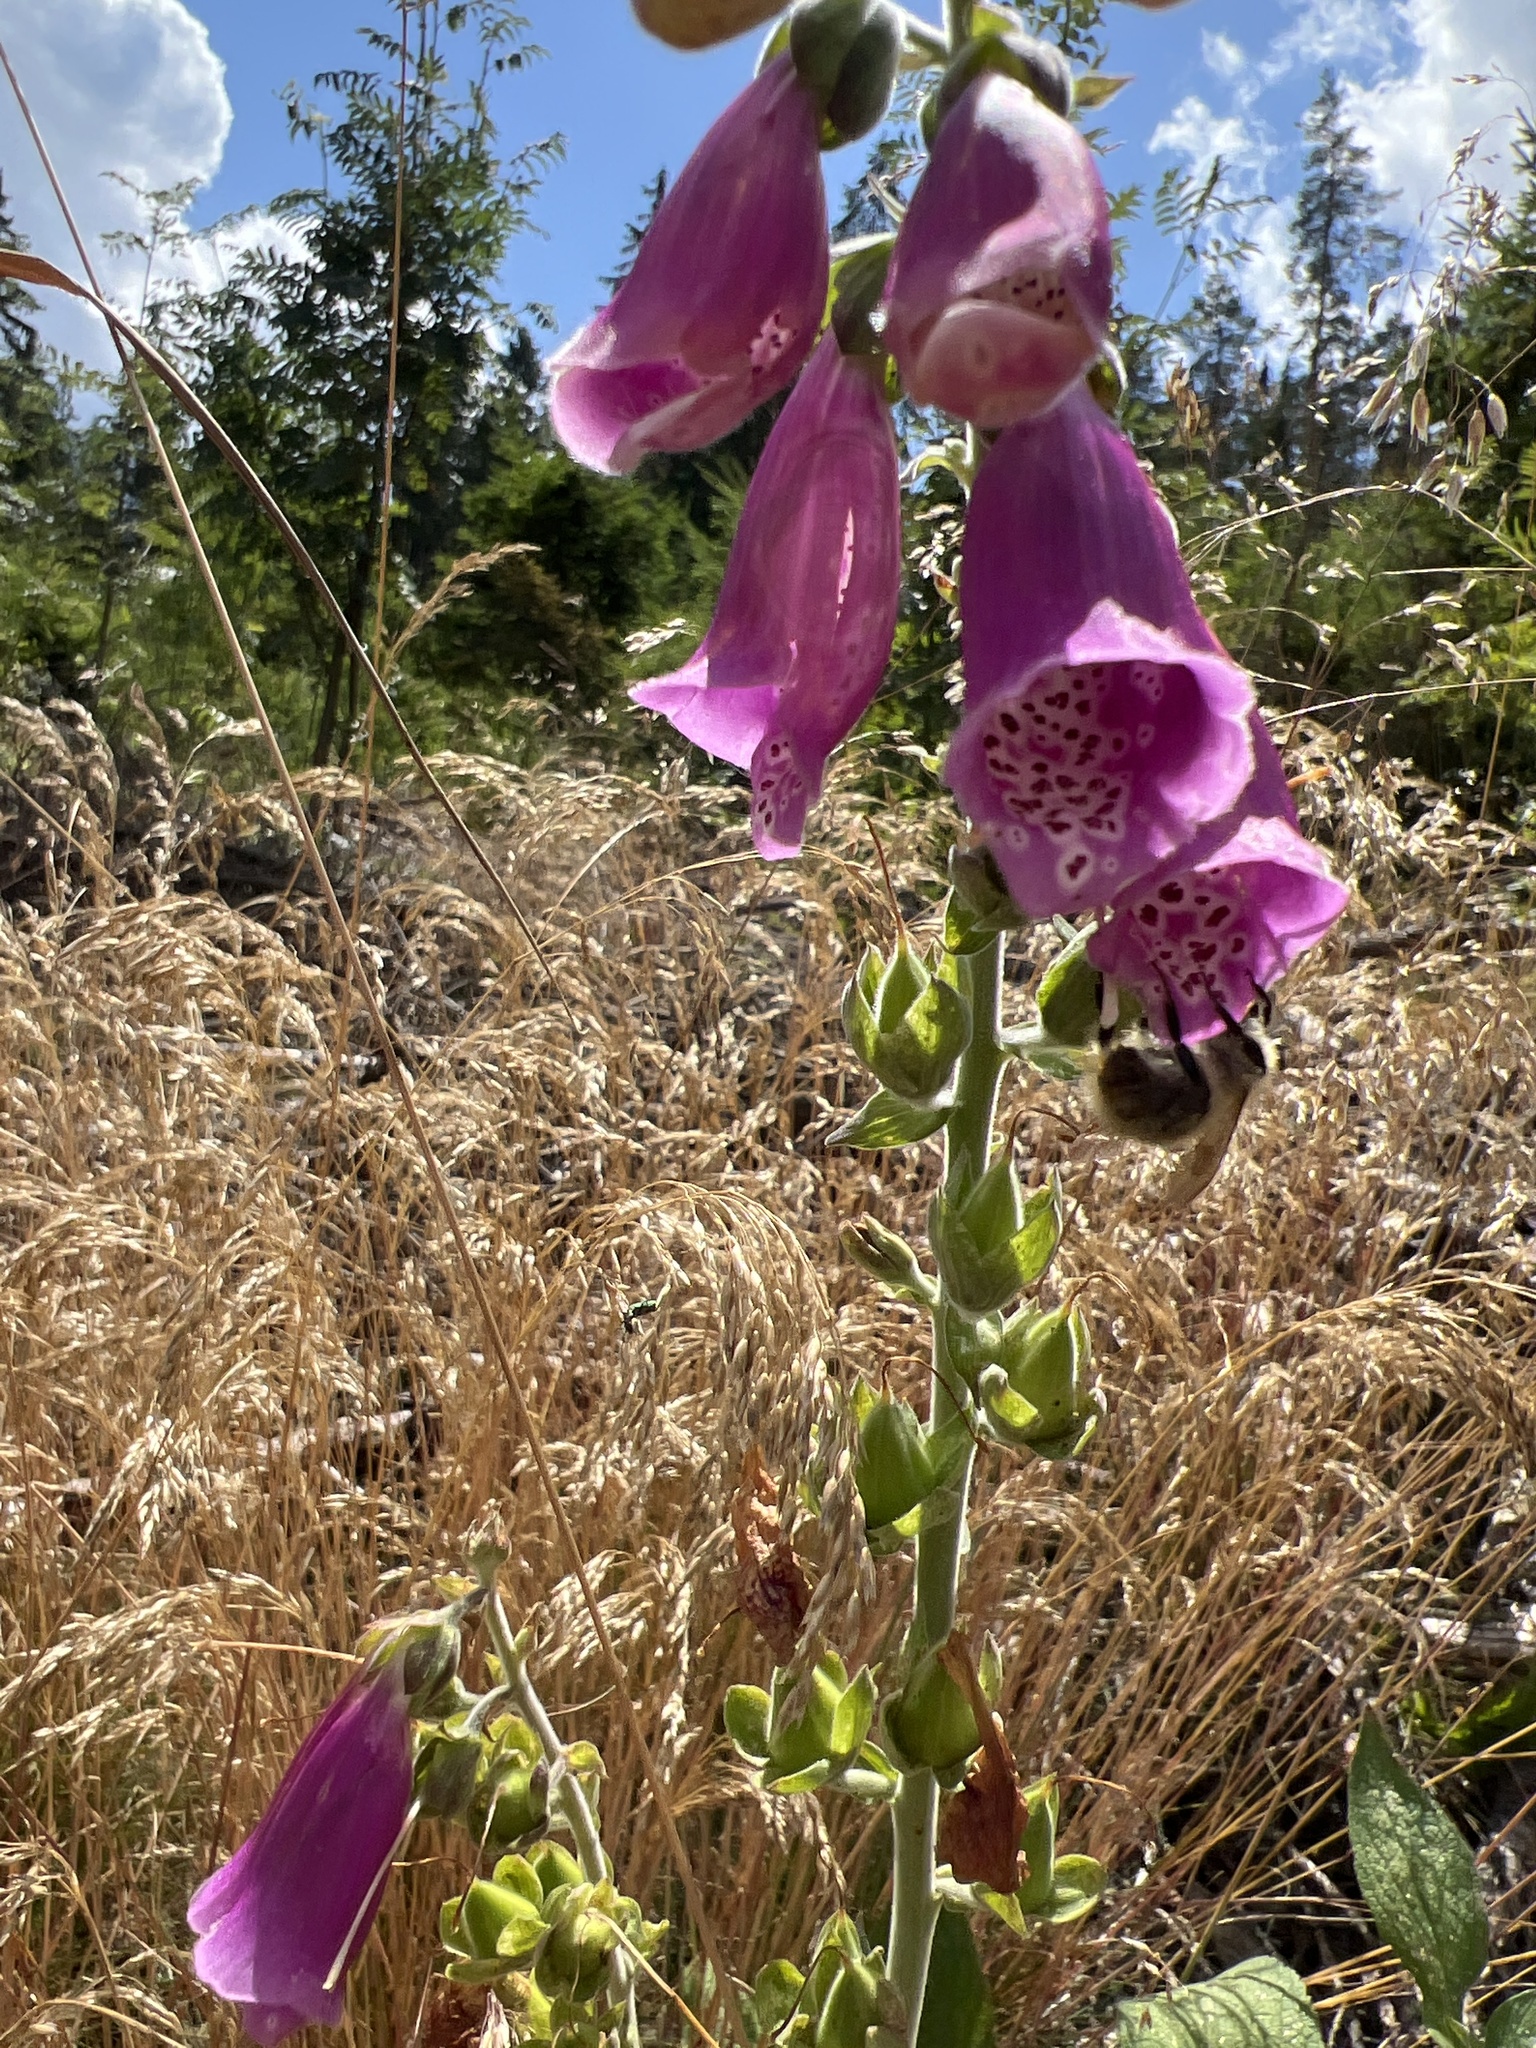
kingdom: Plantae
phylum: Tracheophyta
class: Magnoliopsida
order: Lamiales
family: Plantaginaceae
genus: Digitalis
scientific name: Digitalis purpurea
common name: Foxglove
